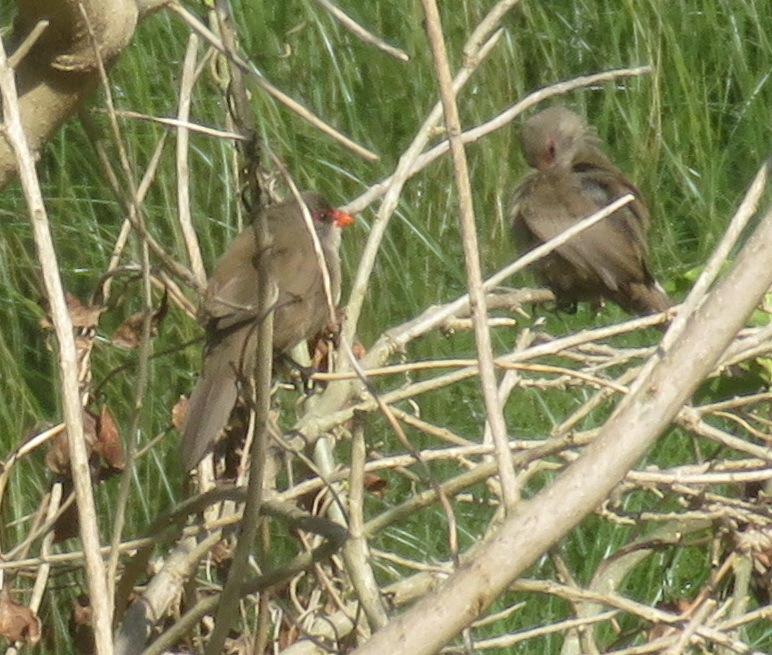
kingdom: Animalia
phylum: Chordata
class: Aves
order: Passeriformes
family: Estrildidae
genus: Estrilda
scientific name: Estrilda astrild
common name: Common waxbill
